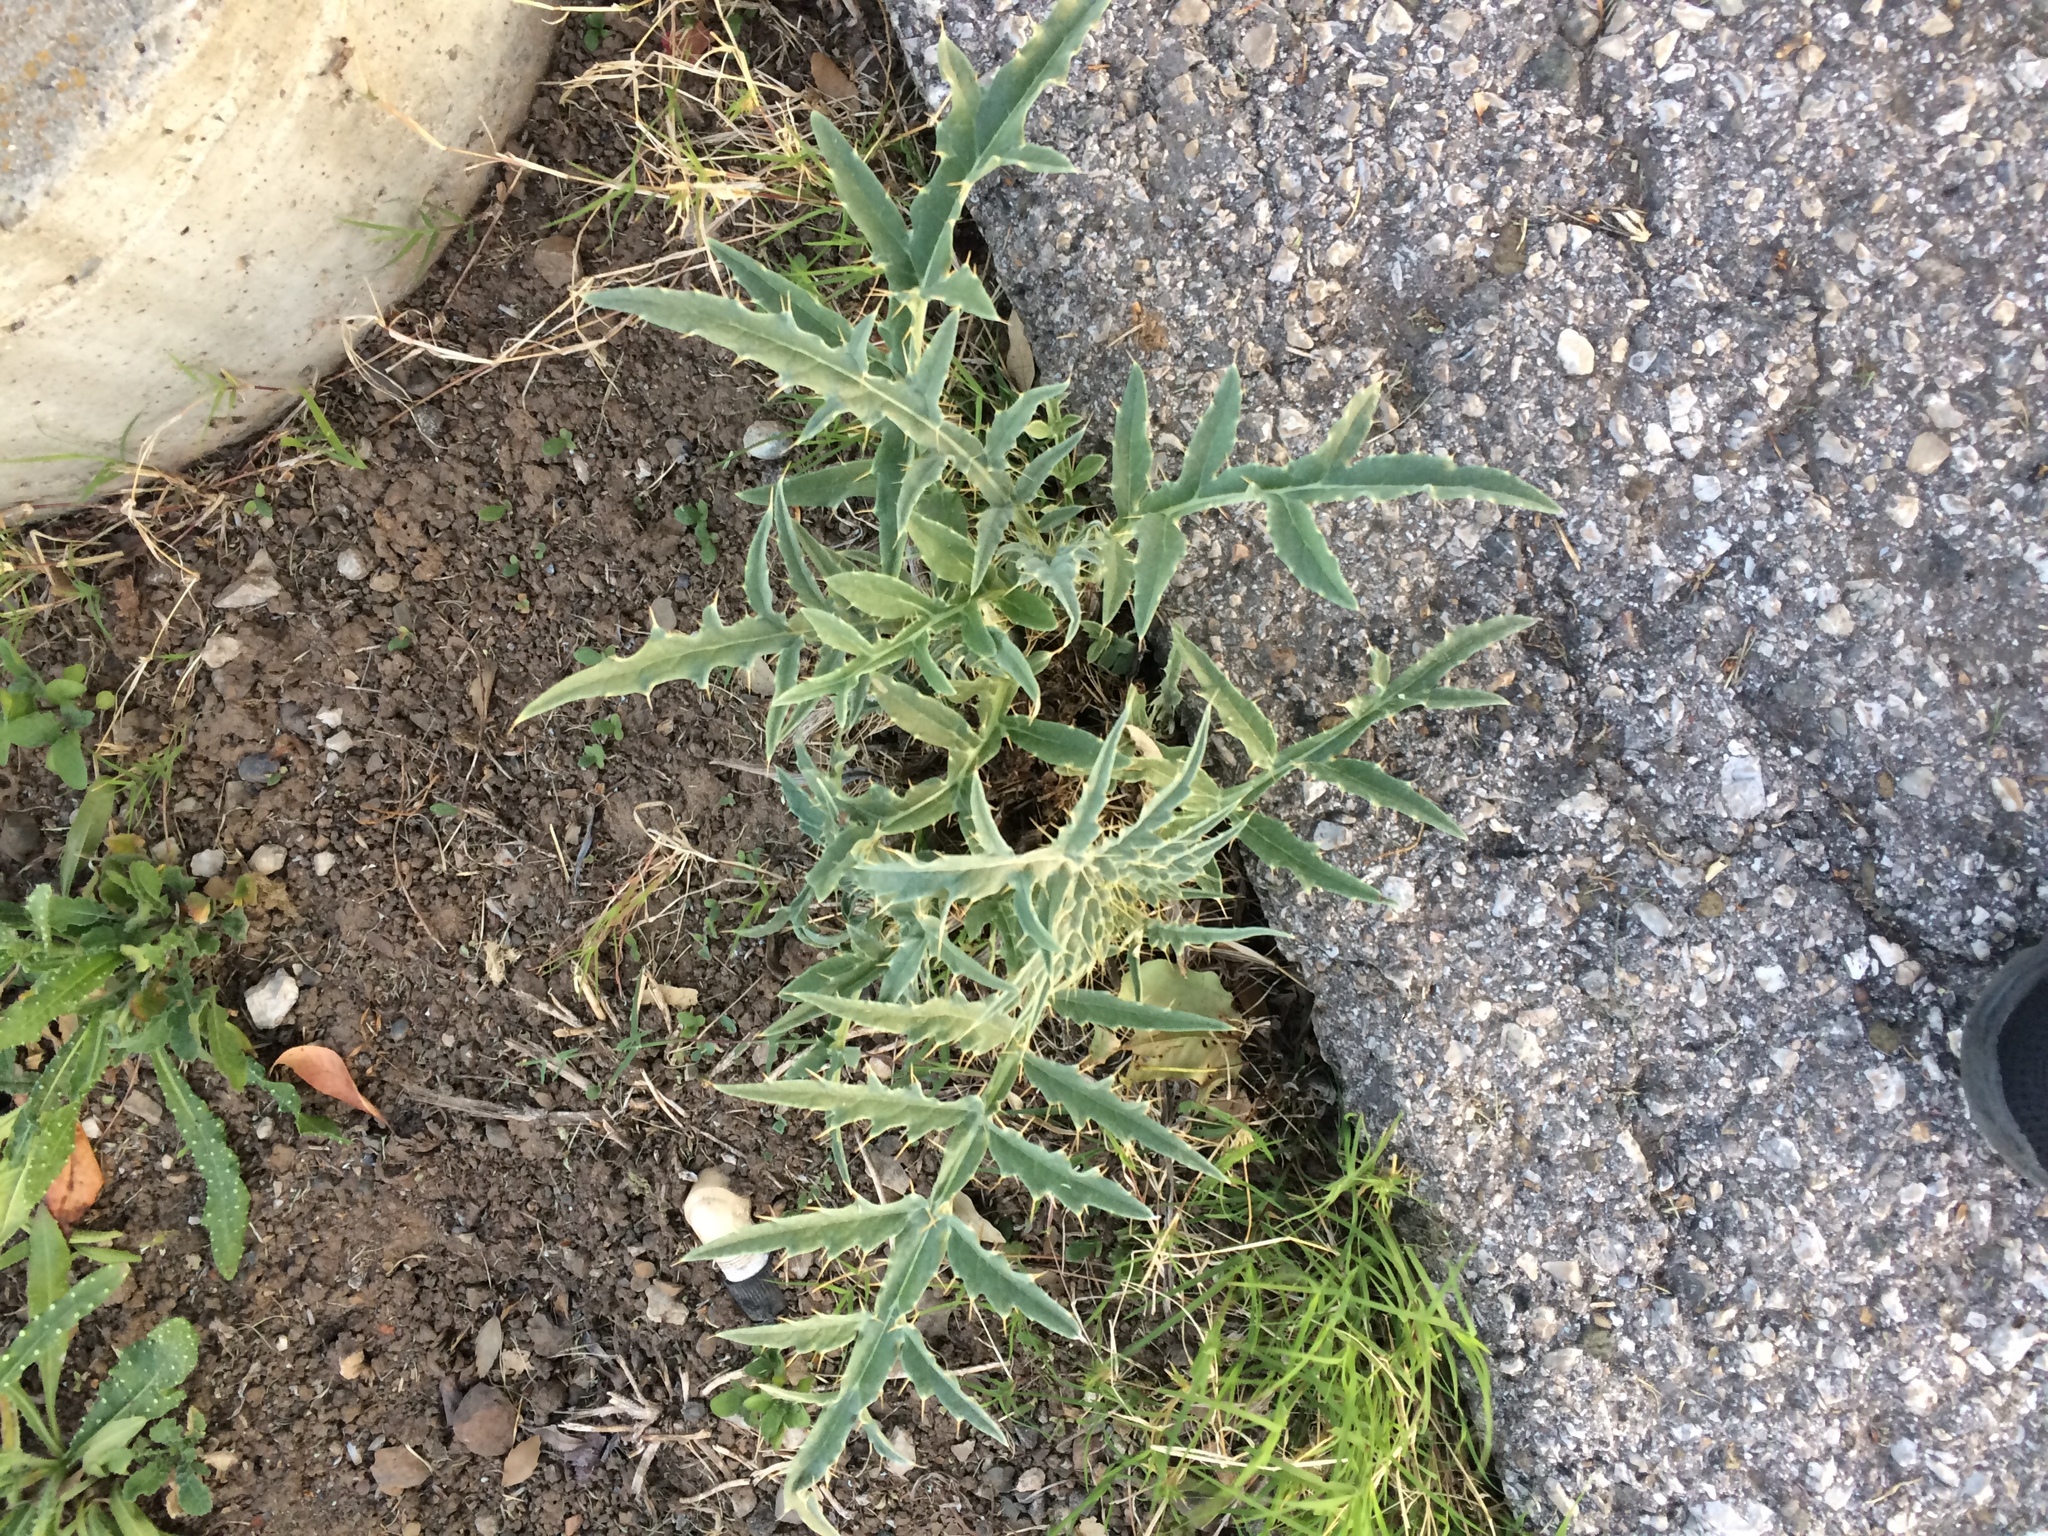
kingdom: Plantae
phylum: Tracheophyta
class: Magnoliopsida
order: Asterales
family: Asteraceae
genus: Cynara
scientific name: Cynara cardunculus
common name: Globe artichoke
